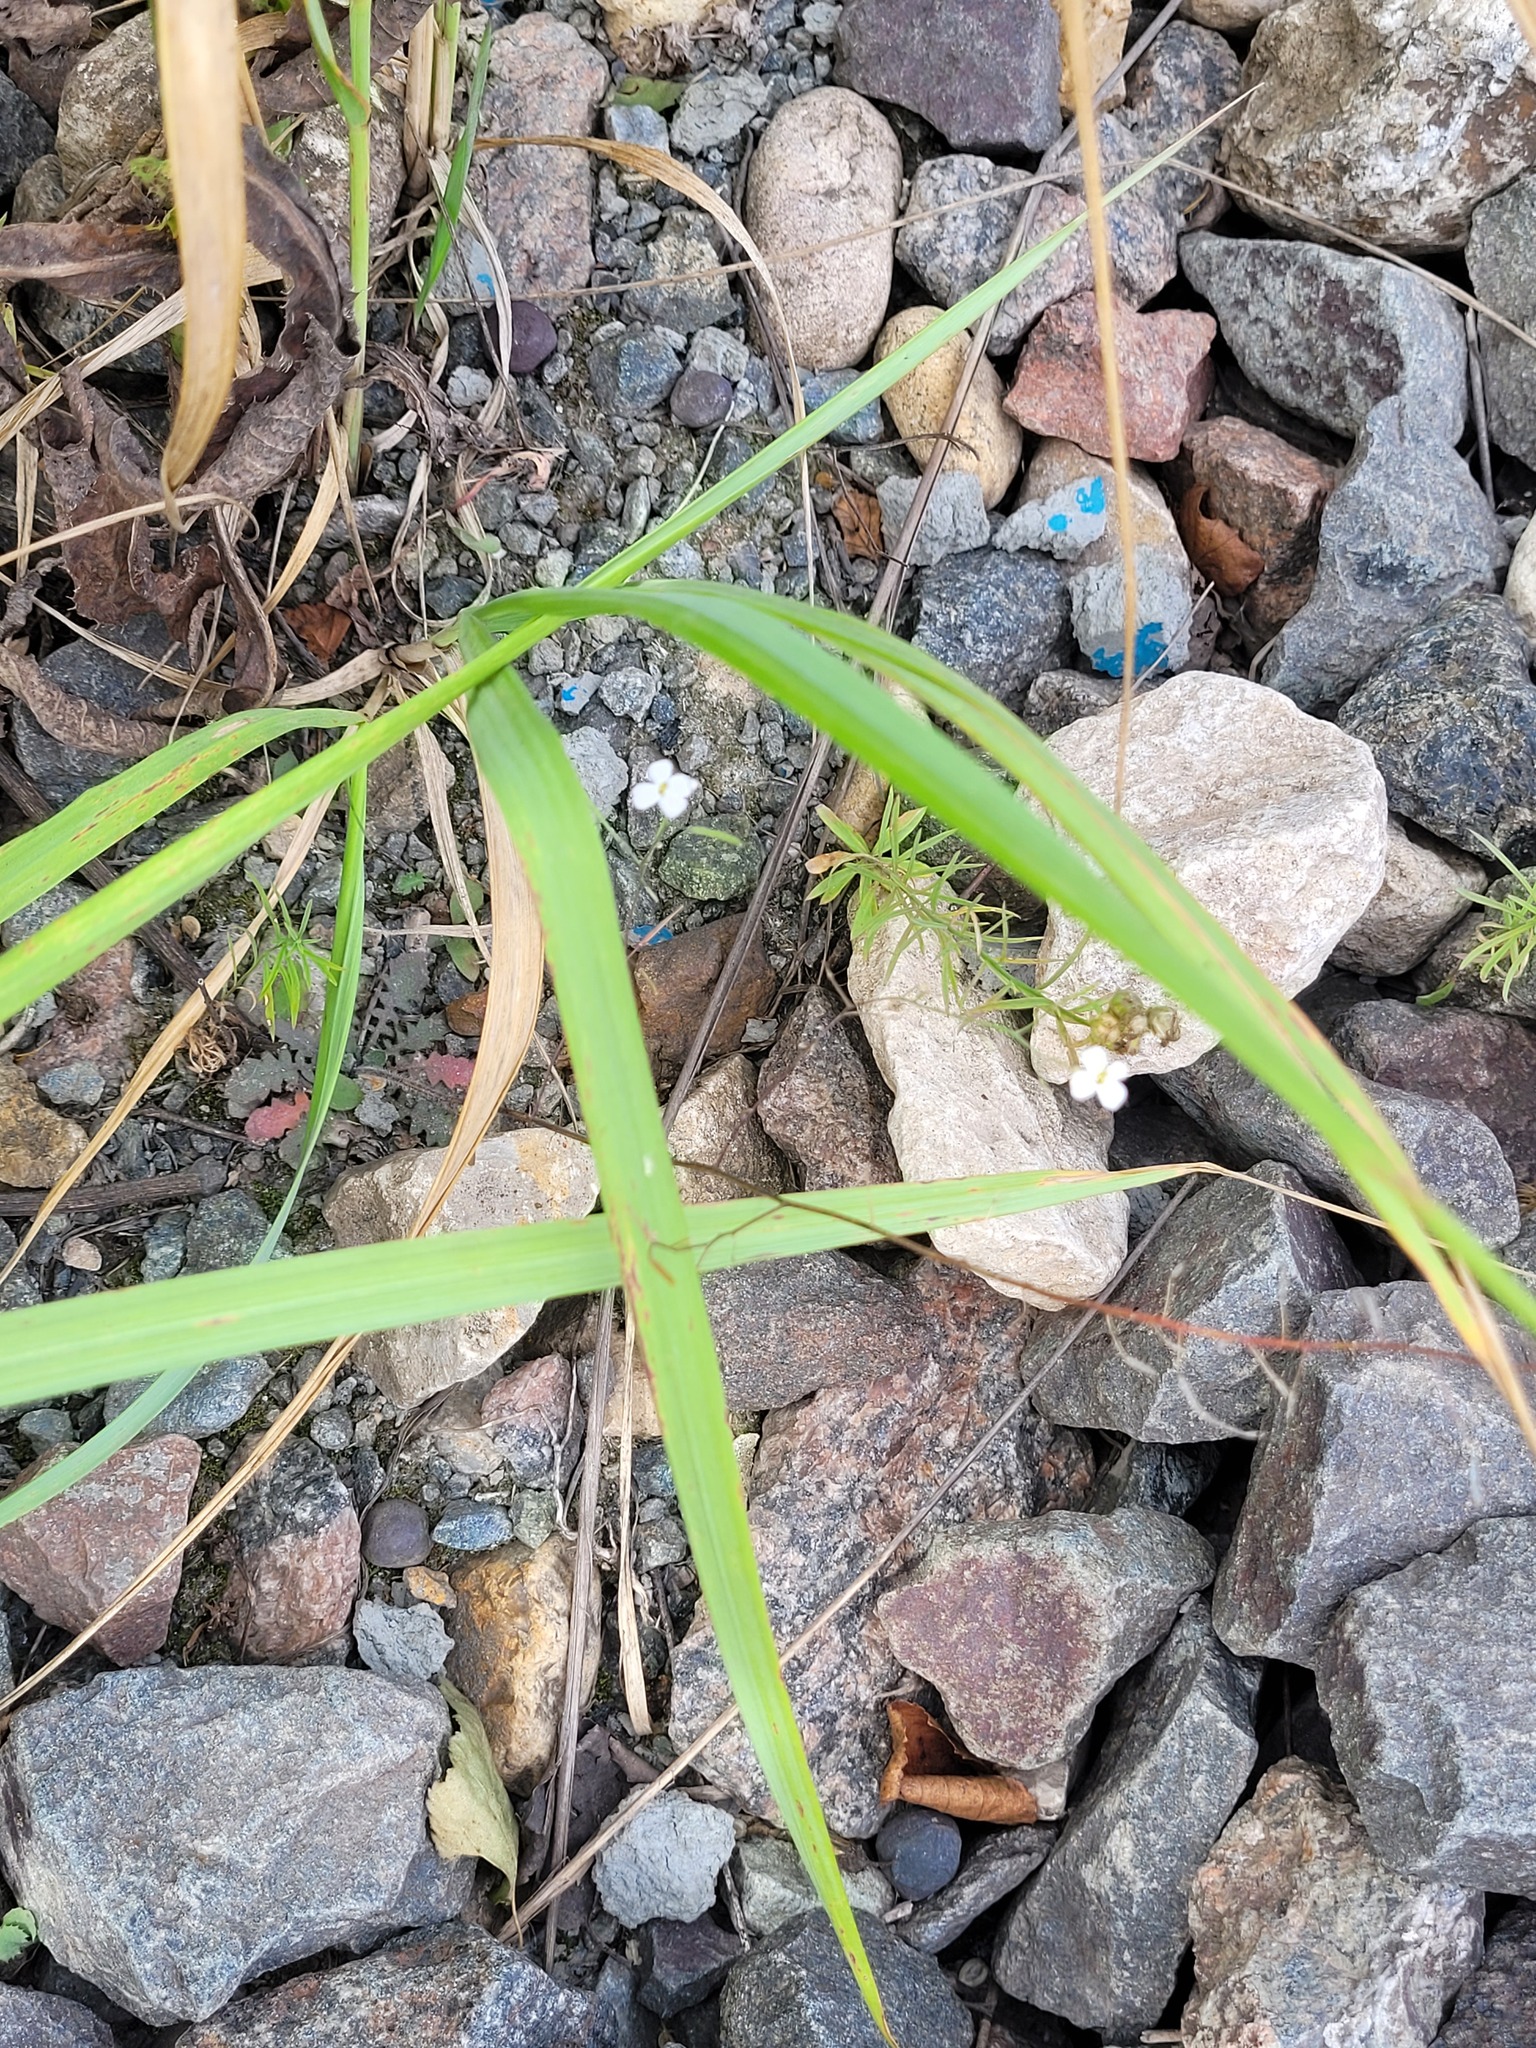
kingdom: Plantae
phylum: Tracheophyta
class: Magnoliopsida
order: Brassicales
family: Brassicaceae
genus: Arabidopsis
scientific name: Arabidopsis arenosa
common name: Sand rock-cress
